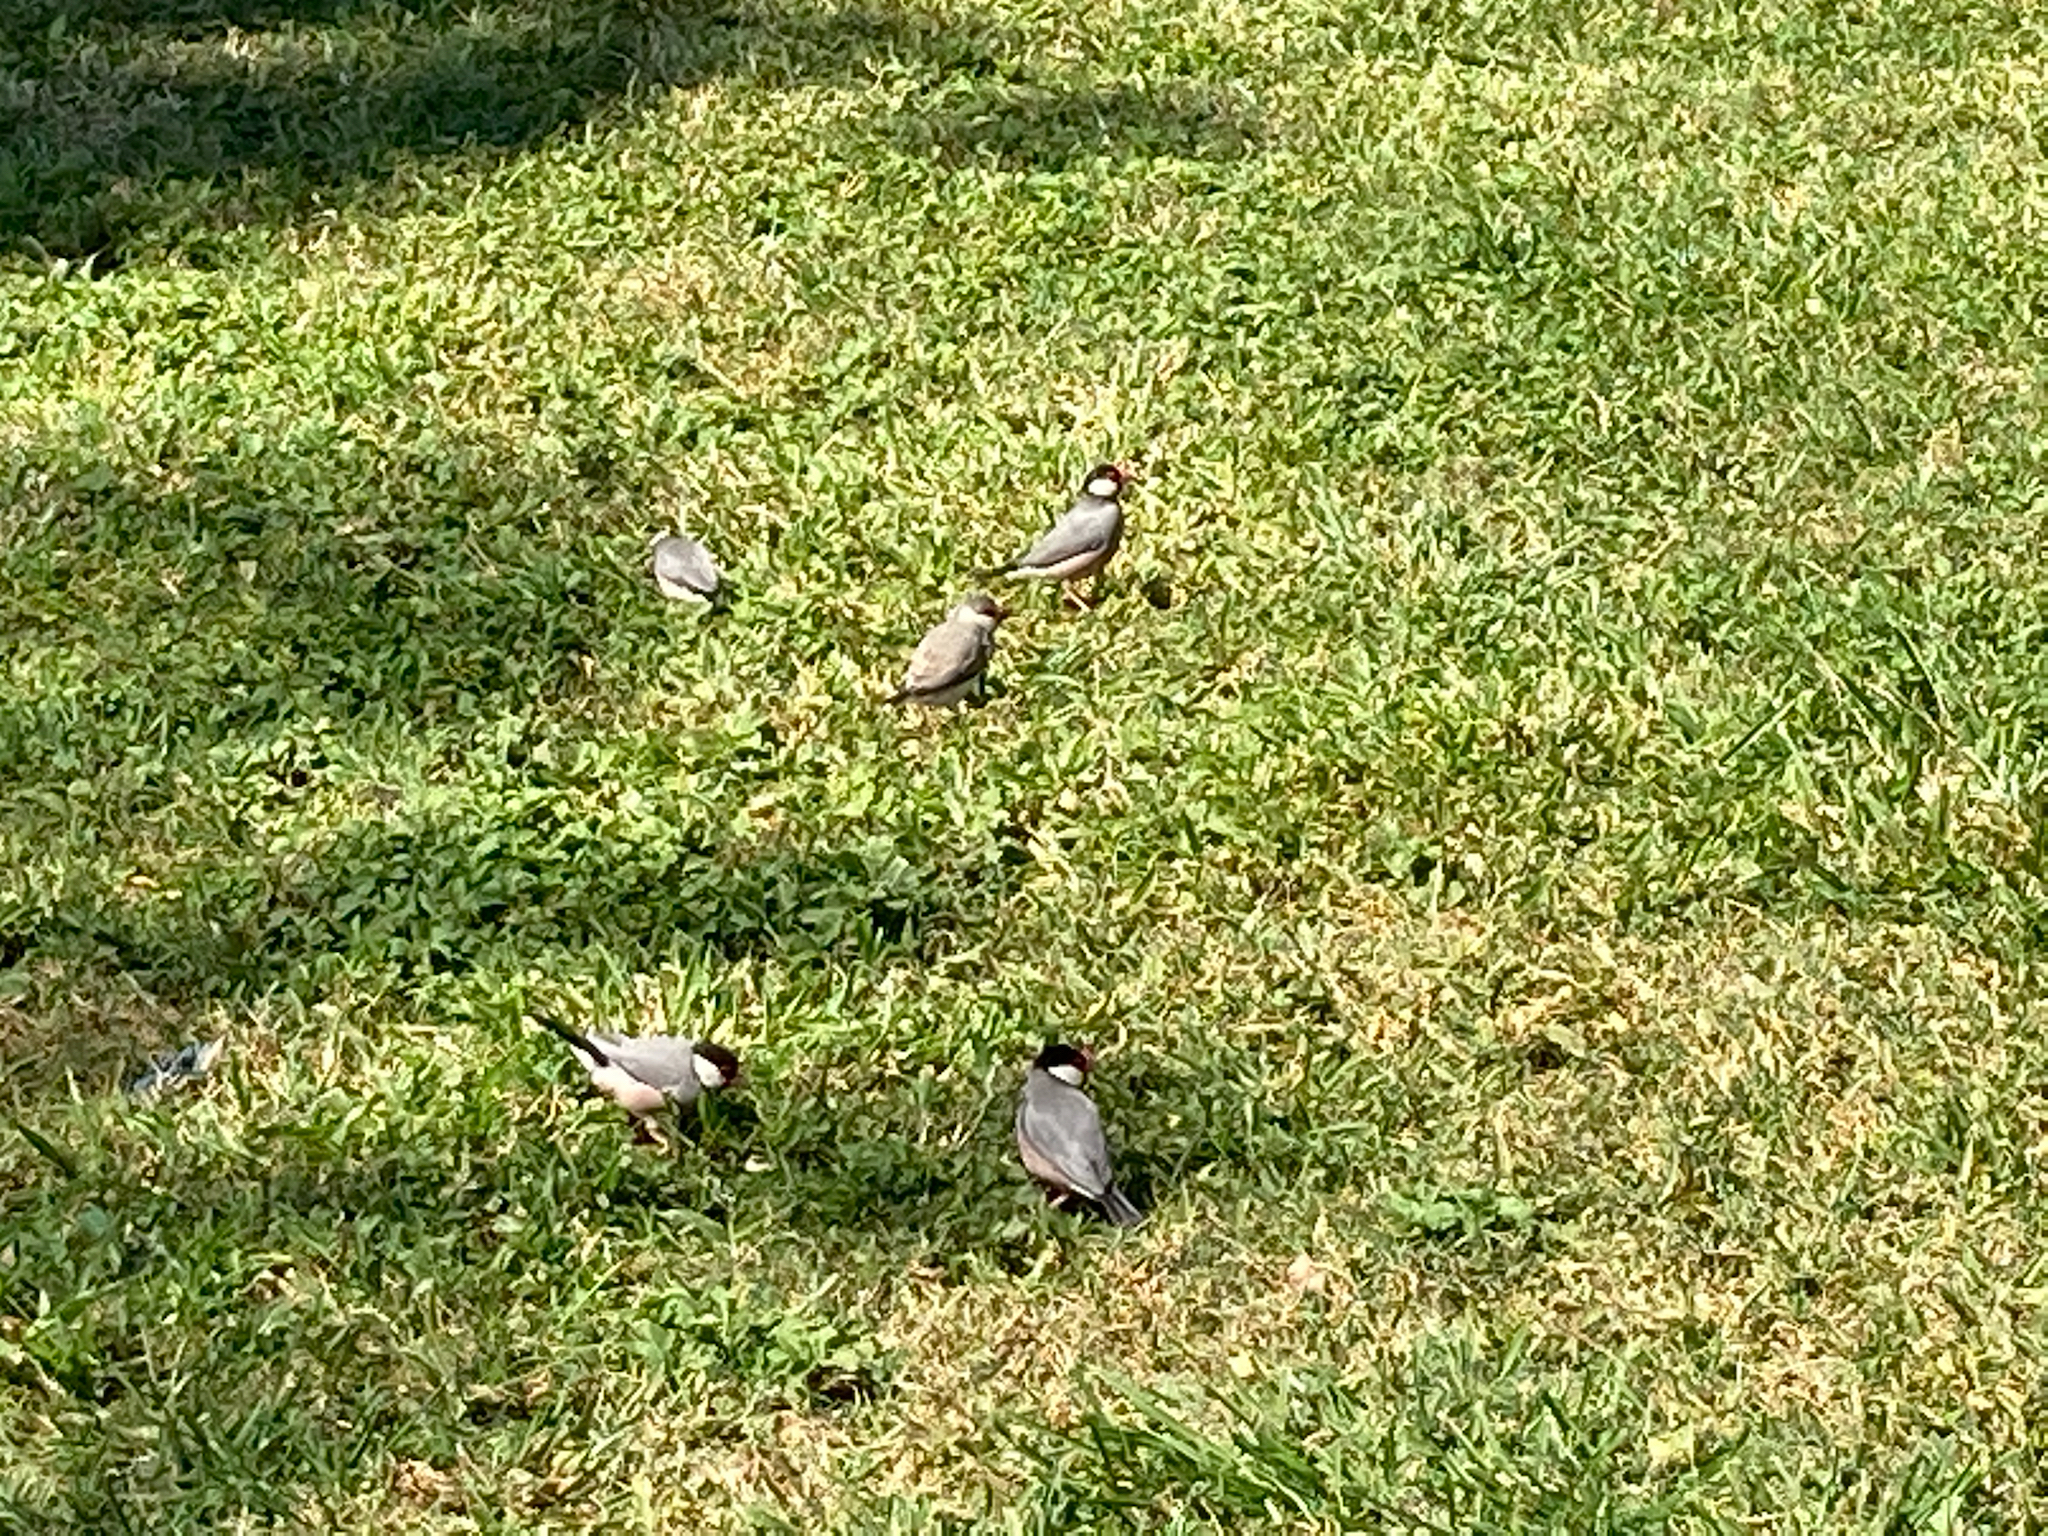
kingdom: Animalia
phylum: Chordata
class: Aves
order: Passeriformes
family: Estrildidae
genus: Lonchura
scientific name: Lonchura oryzivora
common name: Java sparrow
